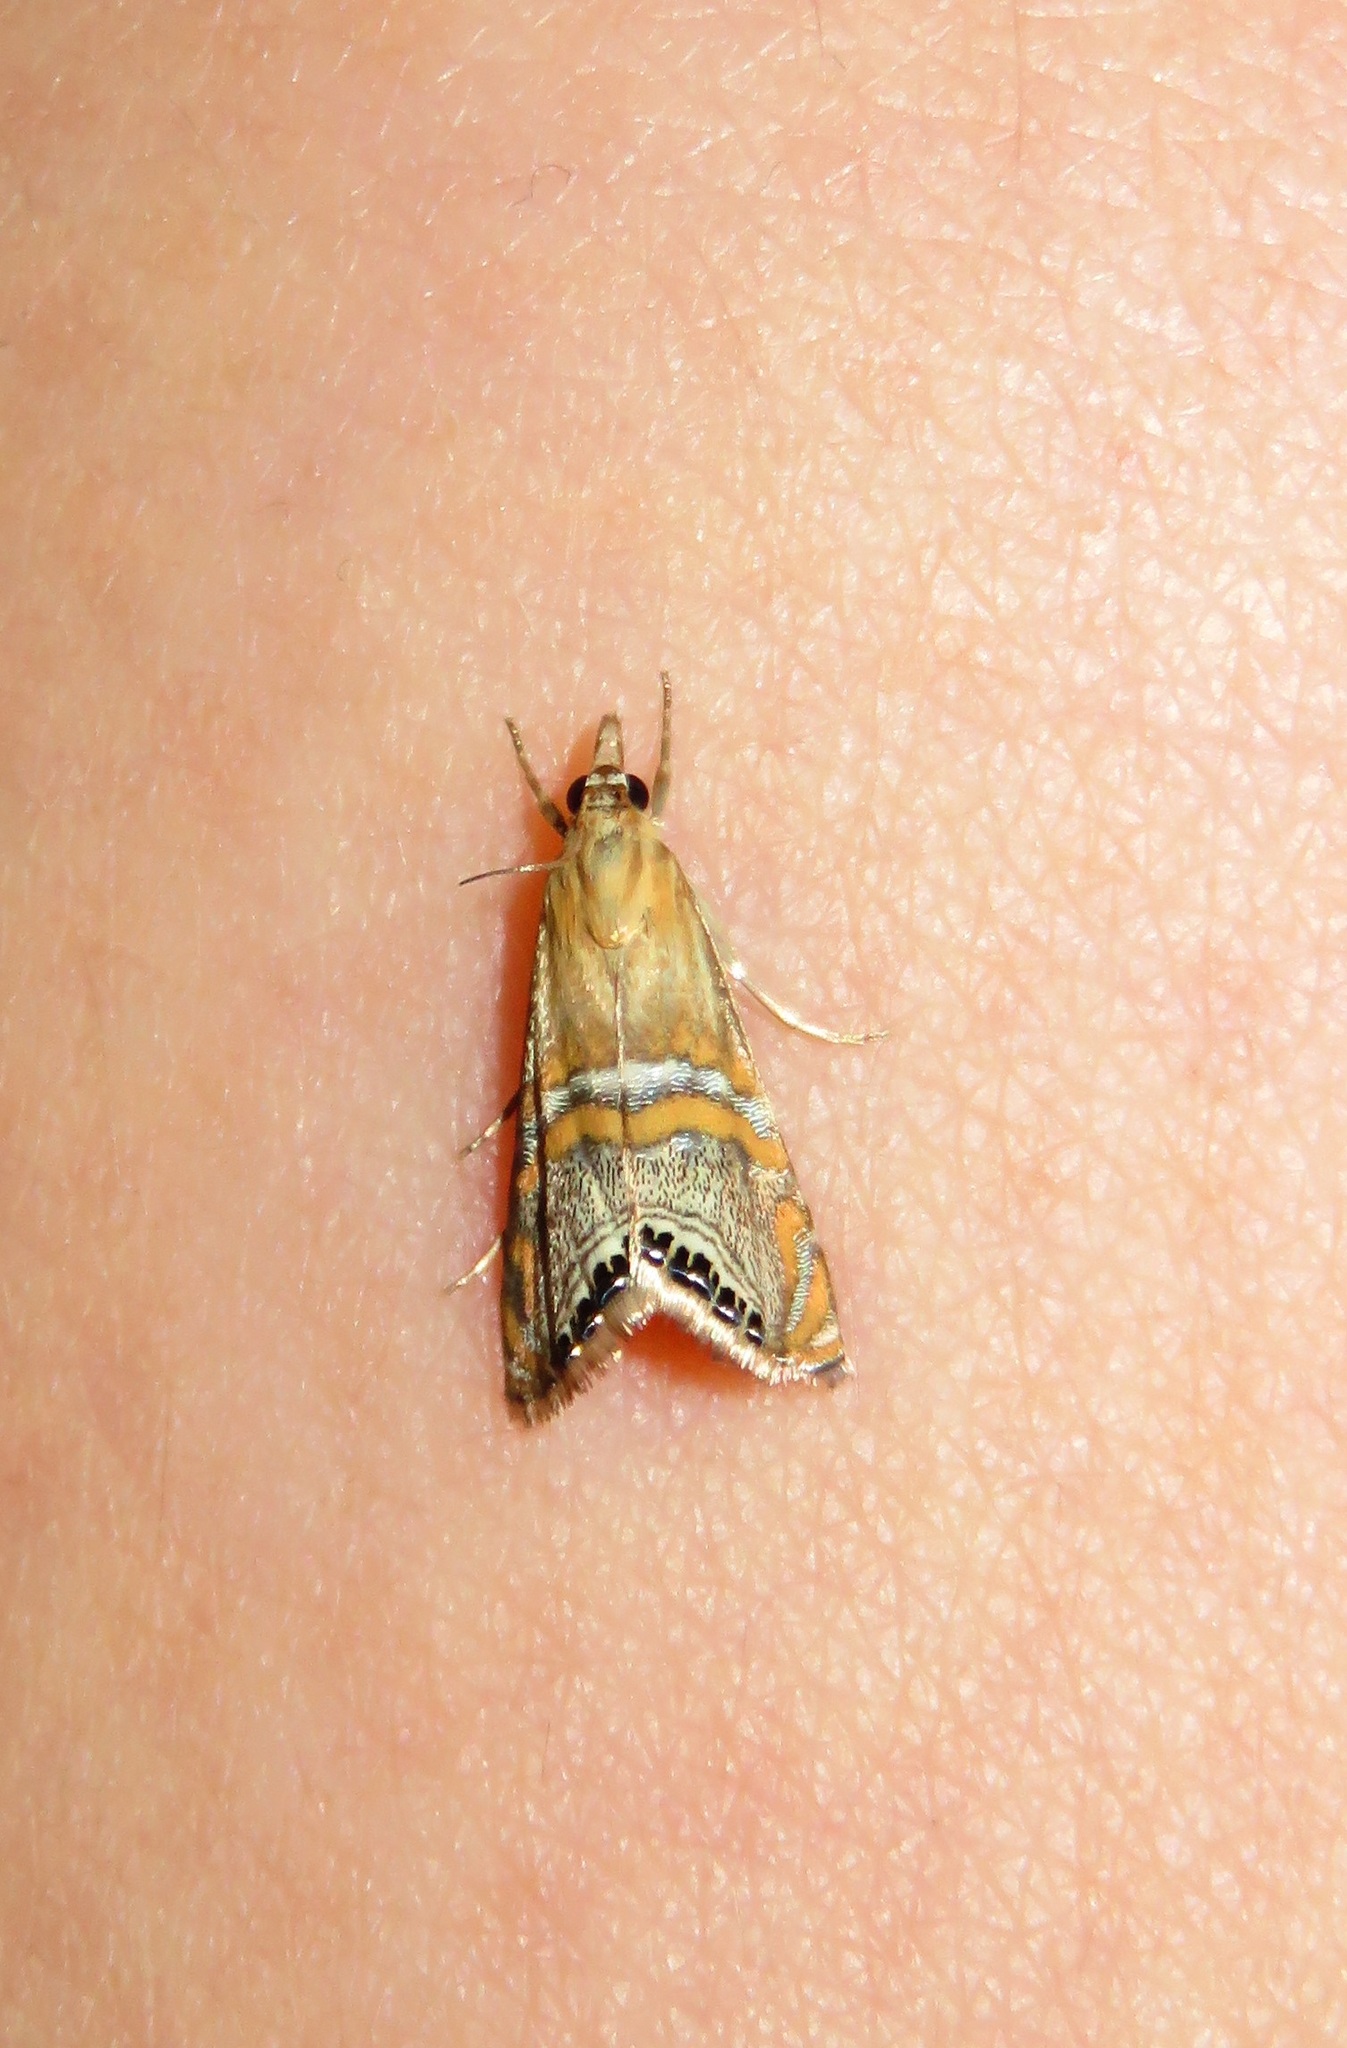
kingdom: Animalia
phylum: Arthropoda
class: Insecta
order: Lepidoptera
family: Crambidae
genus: Euchromius
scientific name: Euchromius bella
